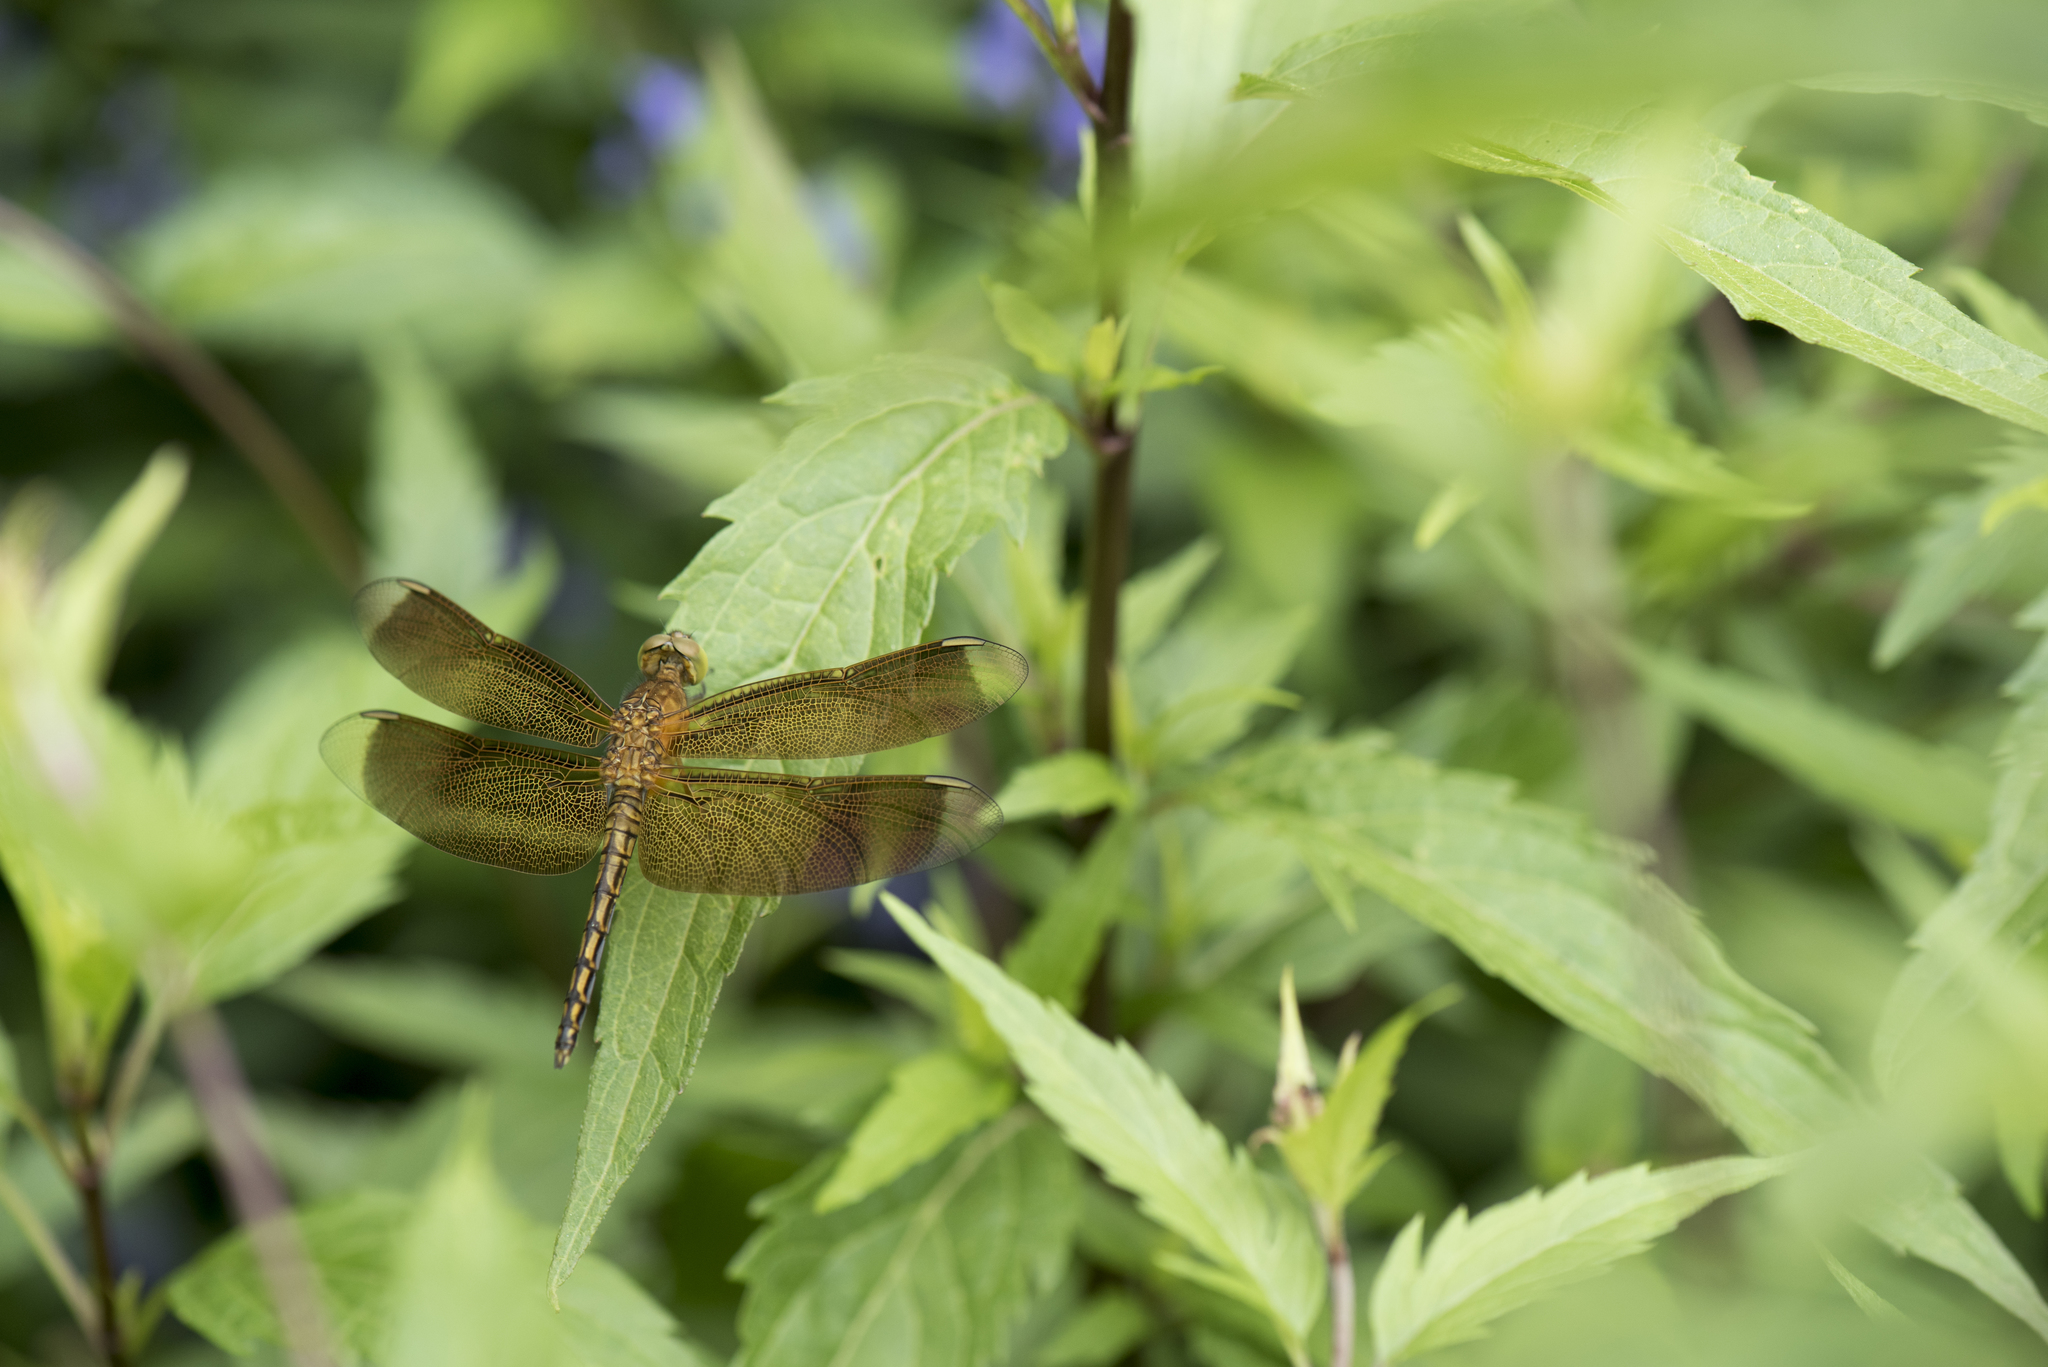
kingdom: Animalia
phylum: Arthropoda
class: Insecta
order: Odonata
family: Libellulidae
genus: Neurothemis
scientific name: Neurothemis taiwanensis
